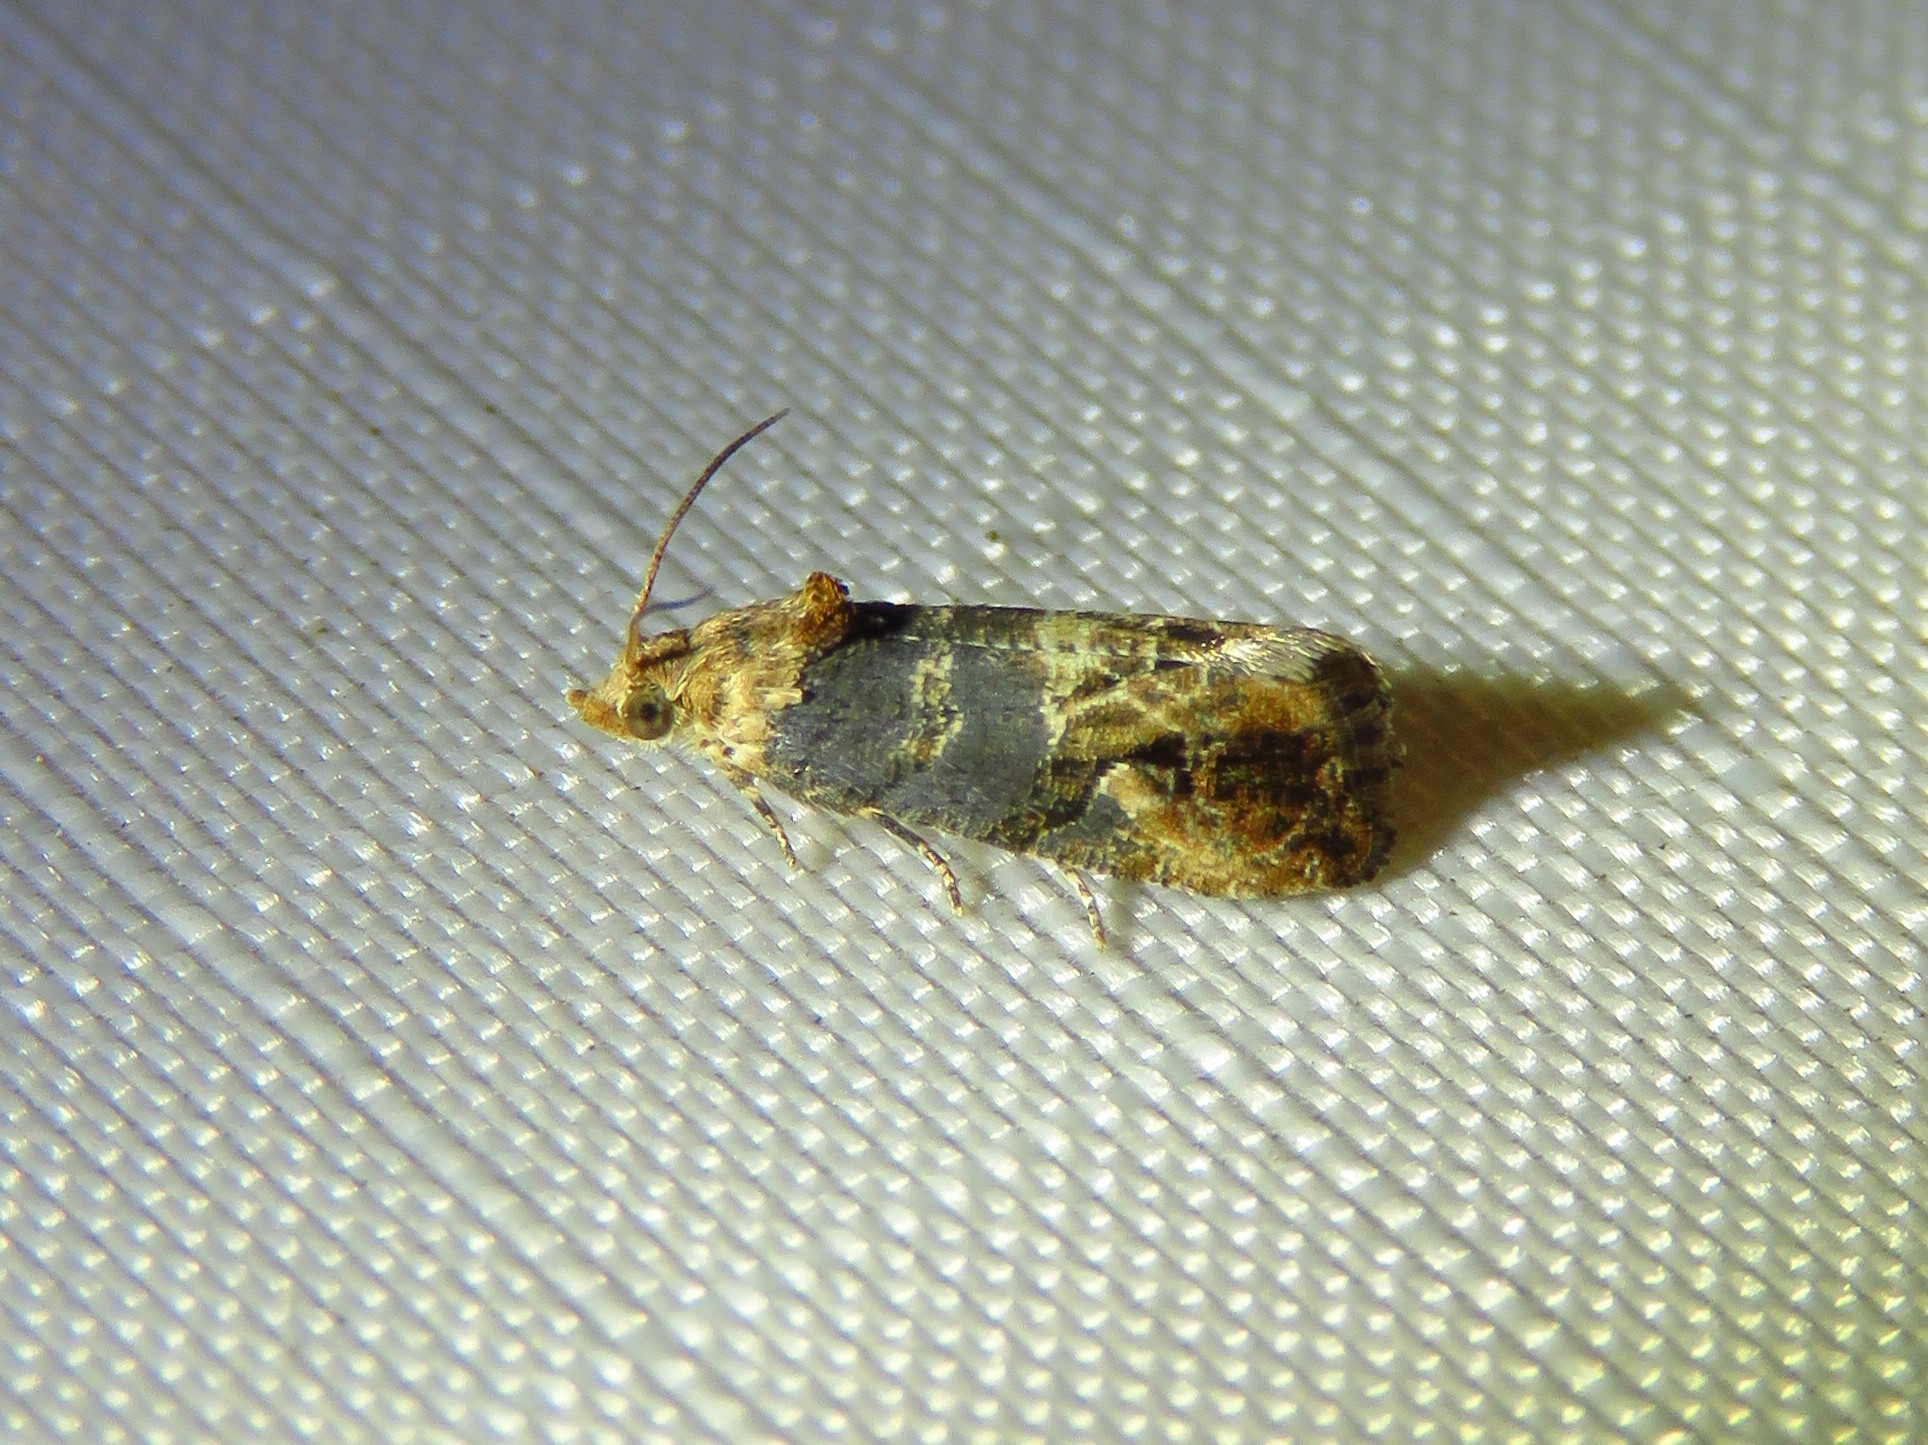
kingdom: Animalia
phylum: Arthropoda
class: Insecta
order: Lepidoptera
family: Tortricidae
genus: Paralobesia
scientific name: Paralobesia viteana
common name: Grape berry moth
